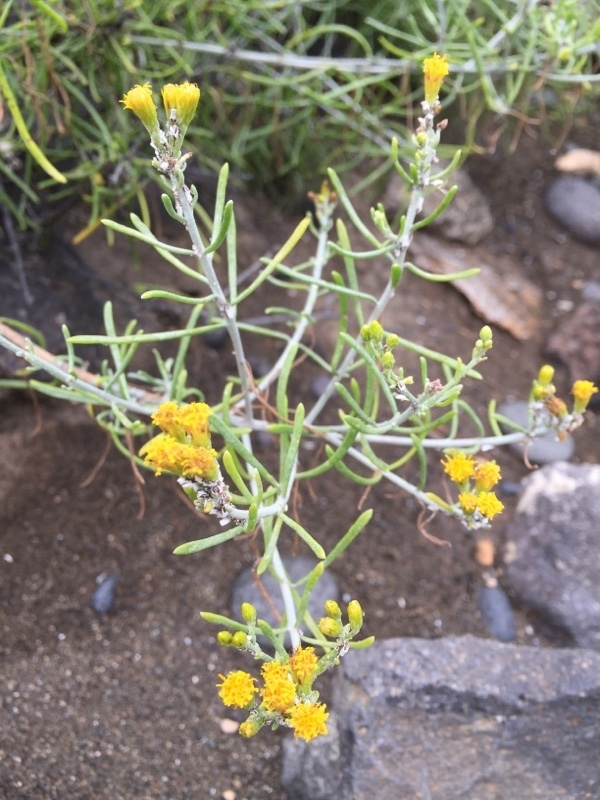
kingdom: Plantae
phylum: Tracheophyta
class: Magnoliopsida
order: Asterales
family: Asteraceae
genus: Schizogyne
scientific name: Schizogyne sericea
